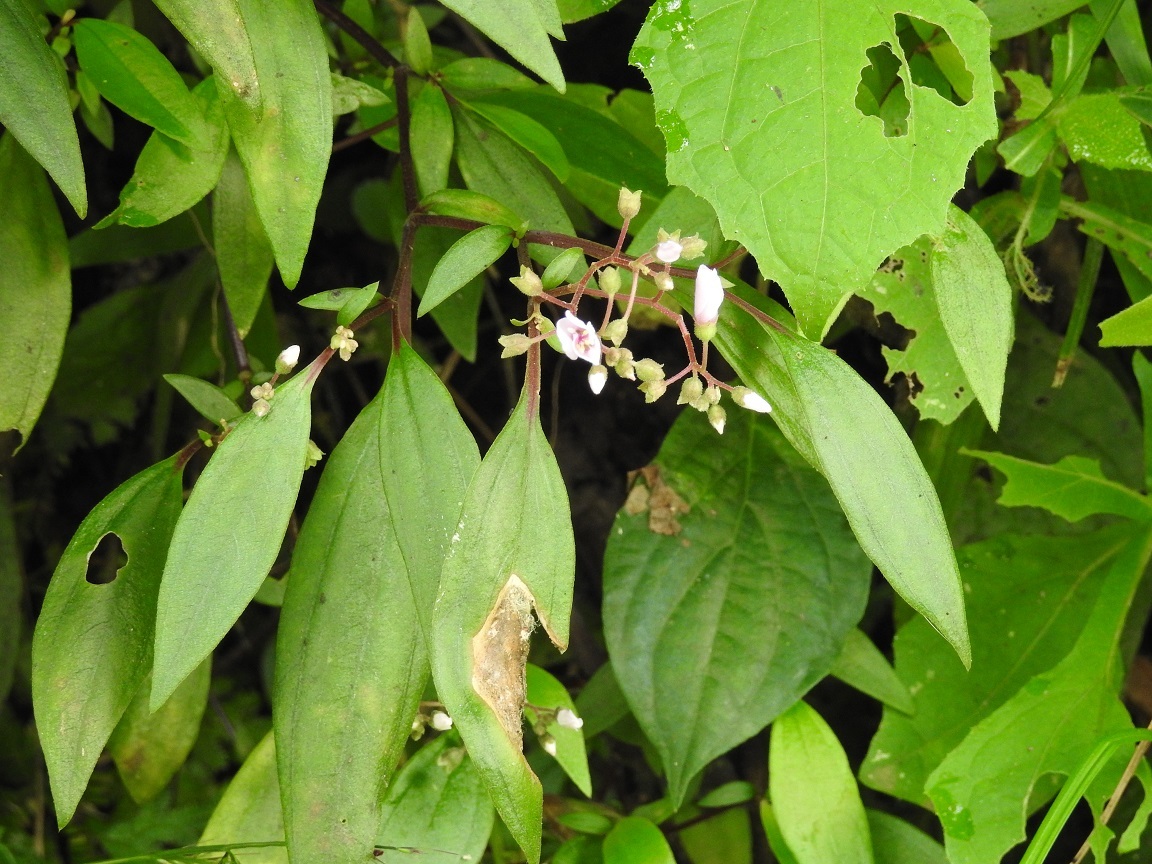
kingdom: Plantae
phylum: Tracheophyta
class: Magnoliopsida
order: Myrtales
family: Melastomataceae
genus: Centradenia
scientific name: Centradenia floribunda
